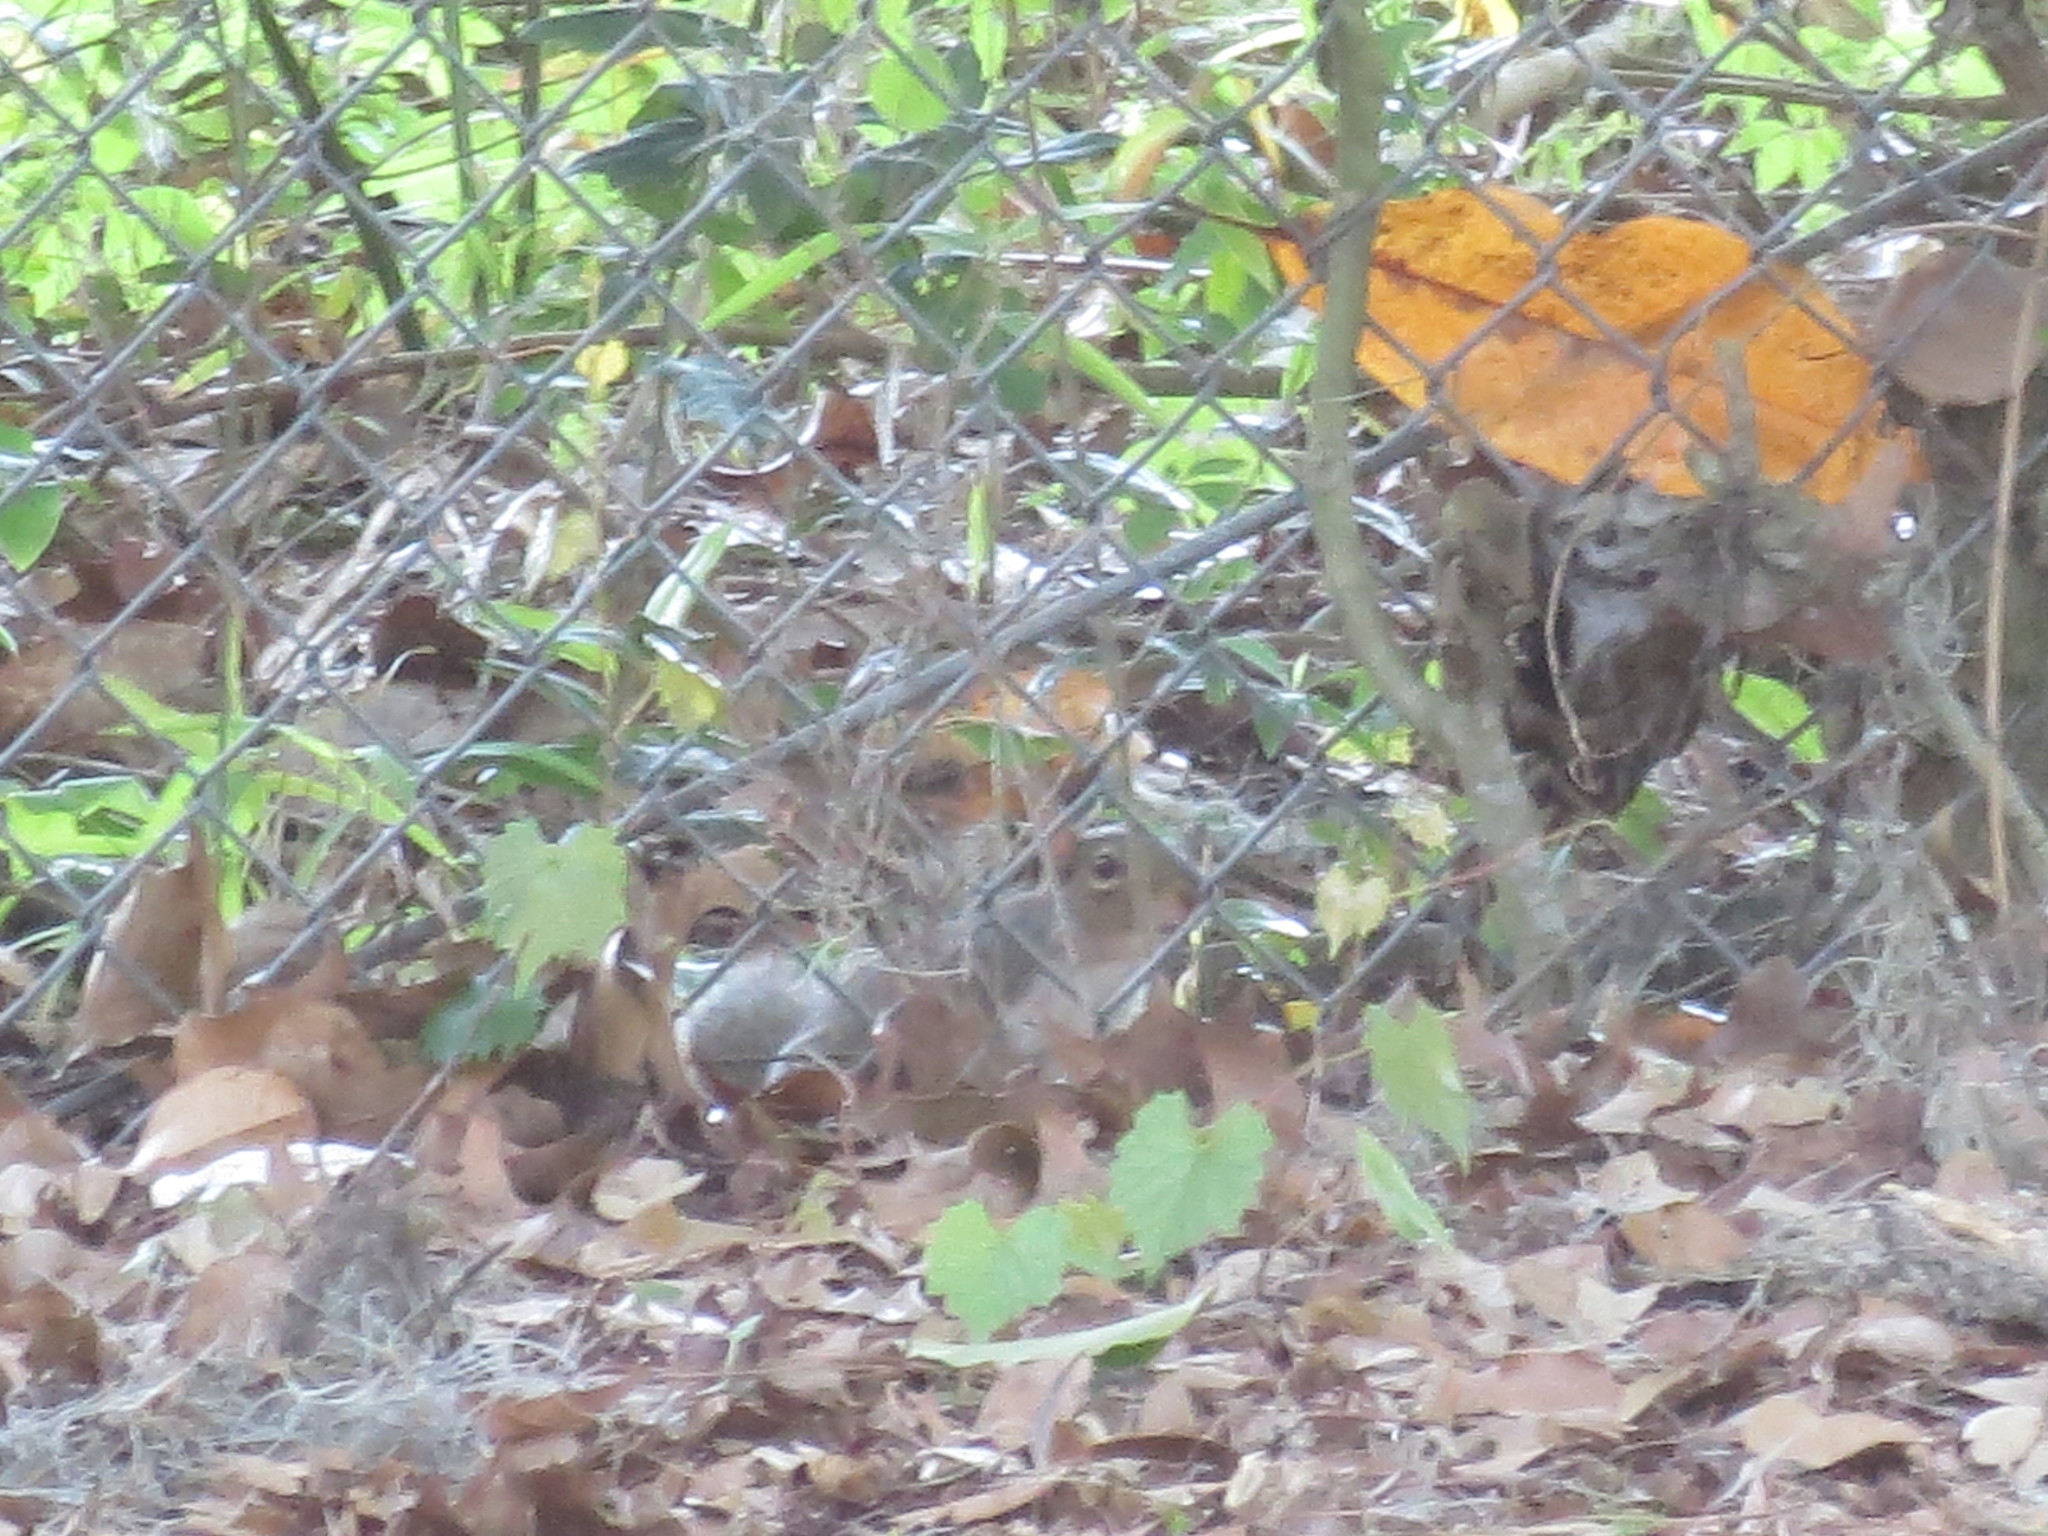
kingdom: Animalia
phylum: Chordata
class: Mammalia
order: Rodentia
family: Sciuridae
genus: Sciurus
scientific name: Sciurus carolinensis
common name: Eastern gray squirrel
